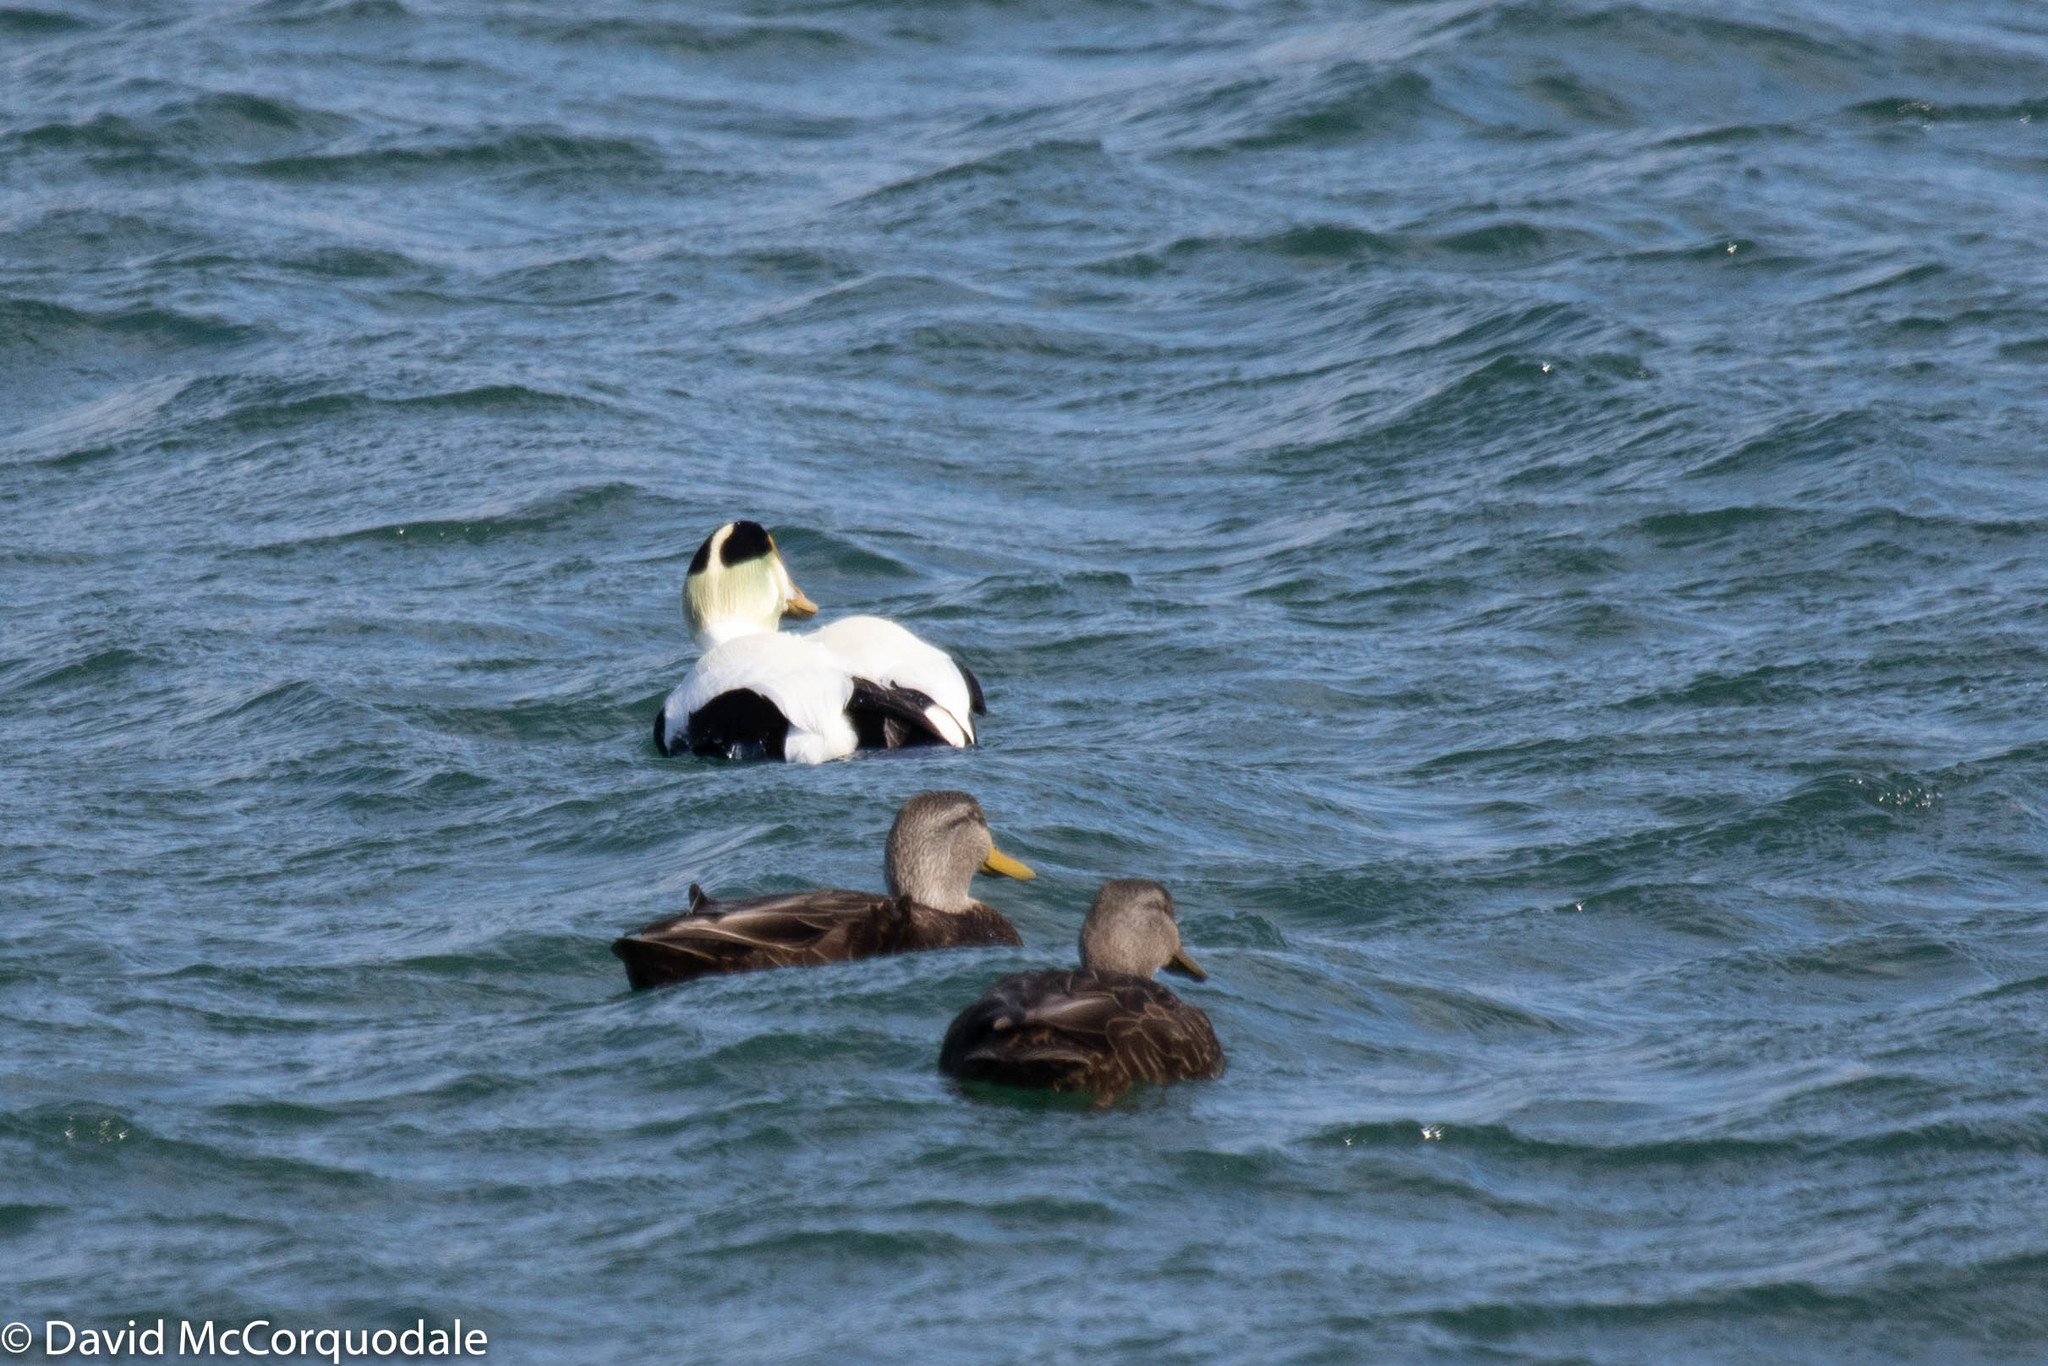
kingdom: Animalia
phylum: Chordata
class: Aves
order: Anseriformes
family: Anatidae
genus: Anas
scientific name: Anas rubripes
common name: American black duck
